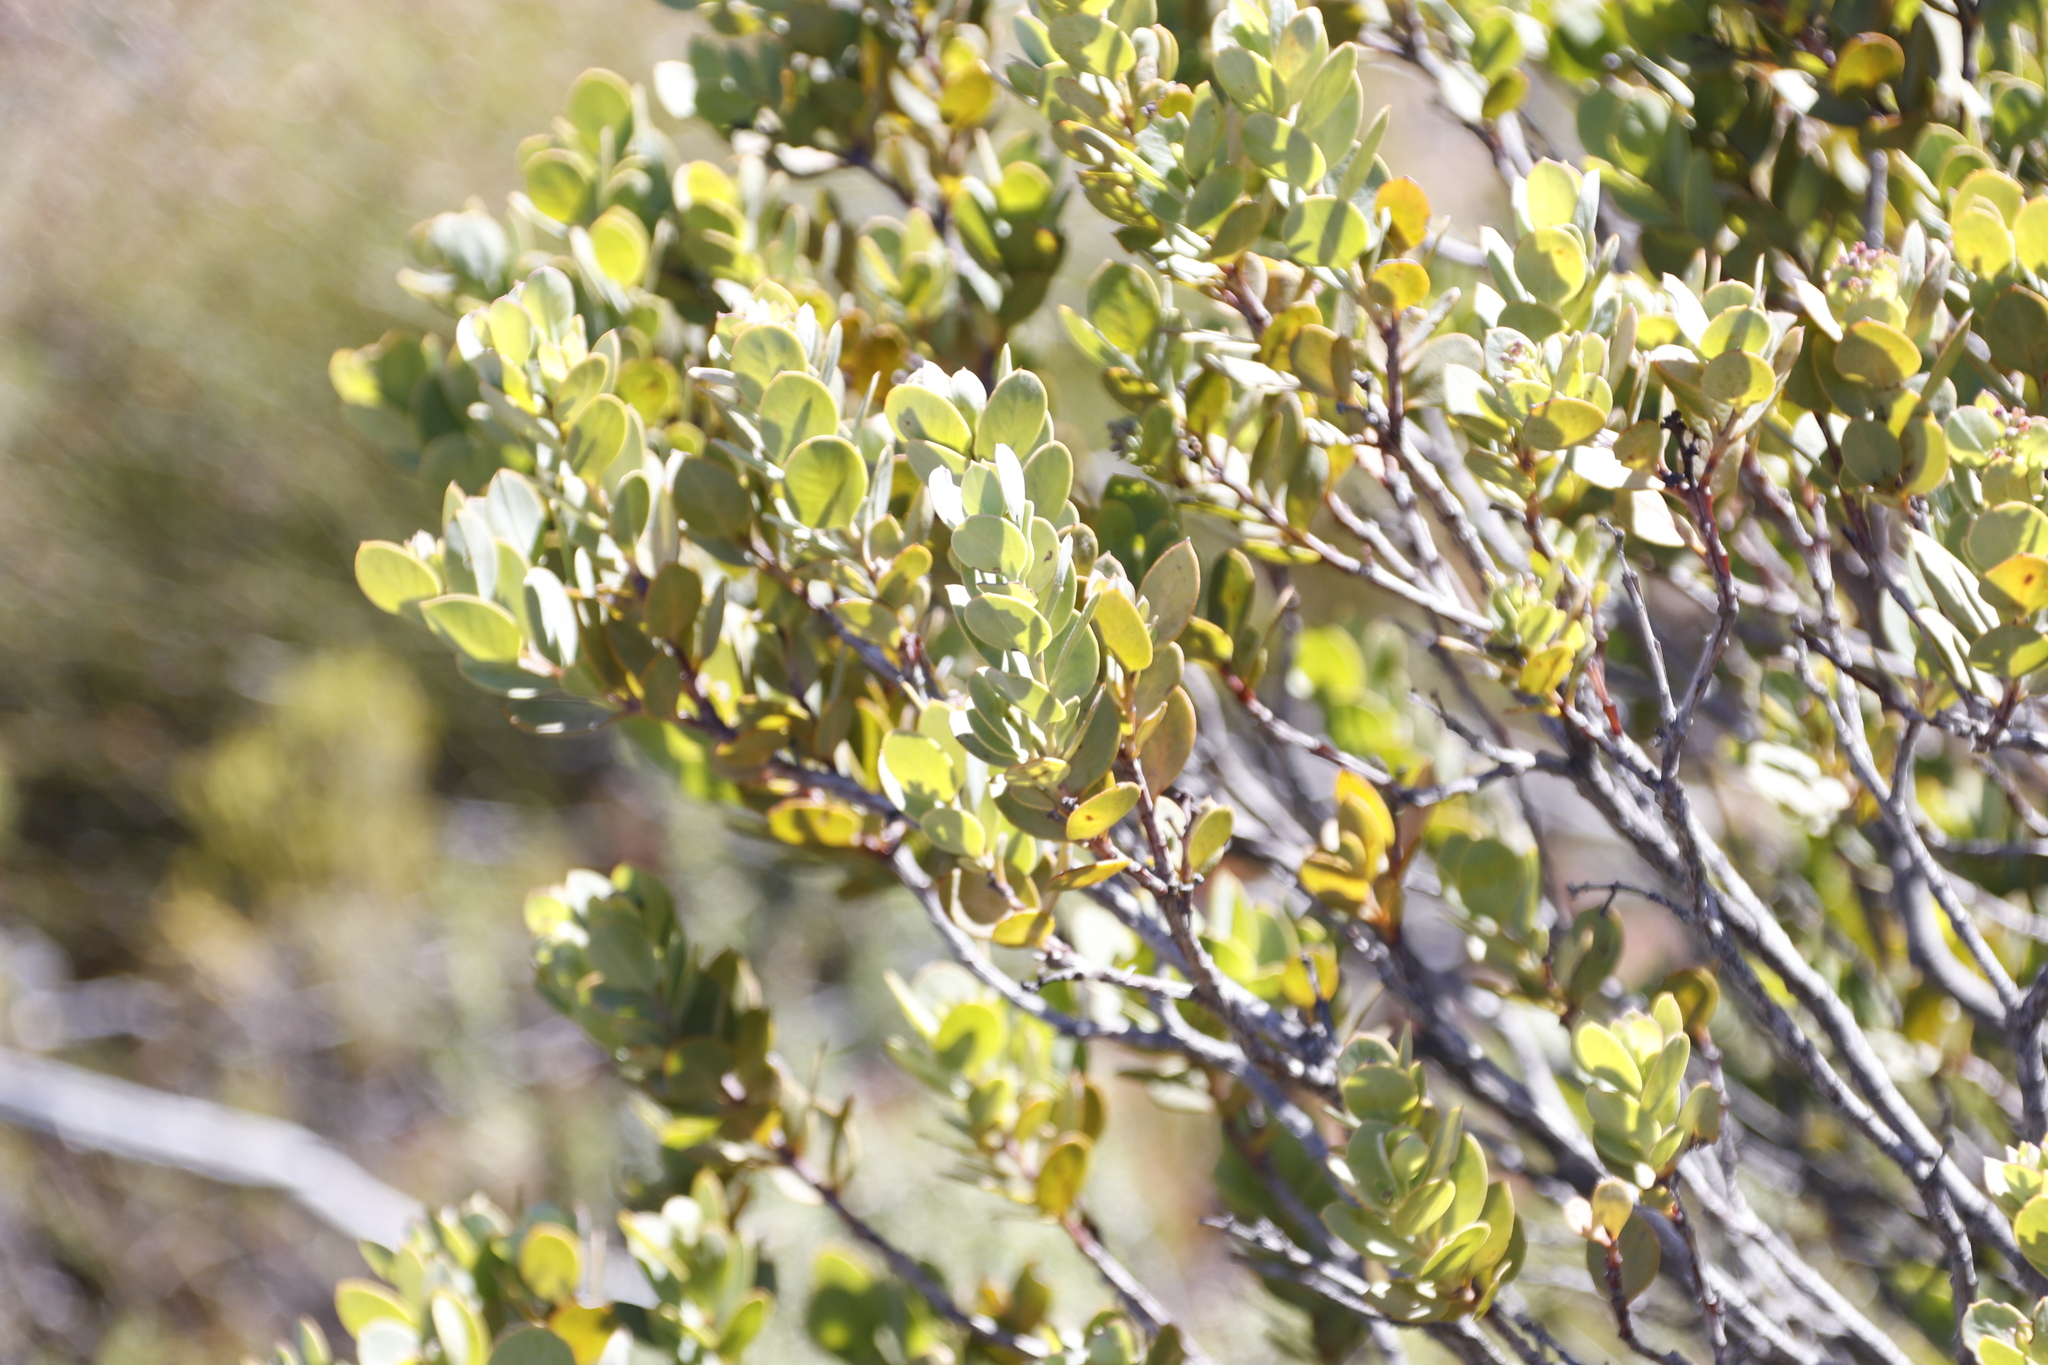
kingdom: Plantae
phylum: Tracheophyta
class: Magnoliopsida
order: Santalales
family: Santalaceae
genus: Osyris
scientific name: Osyris compressa
